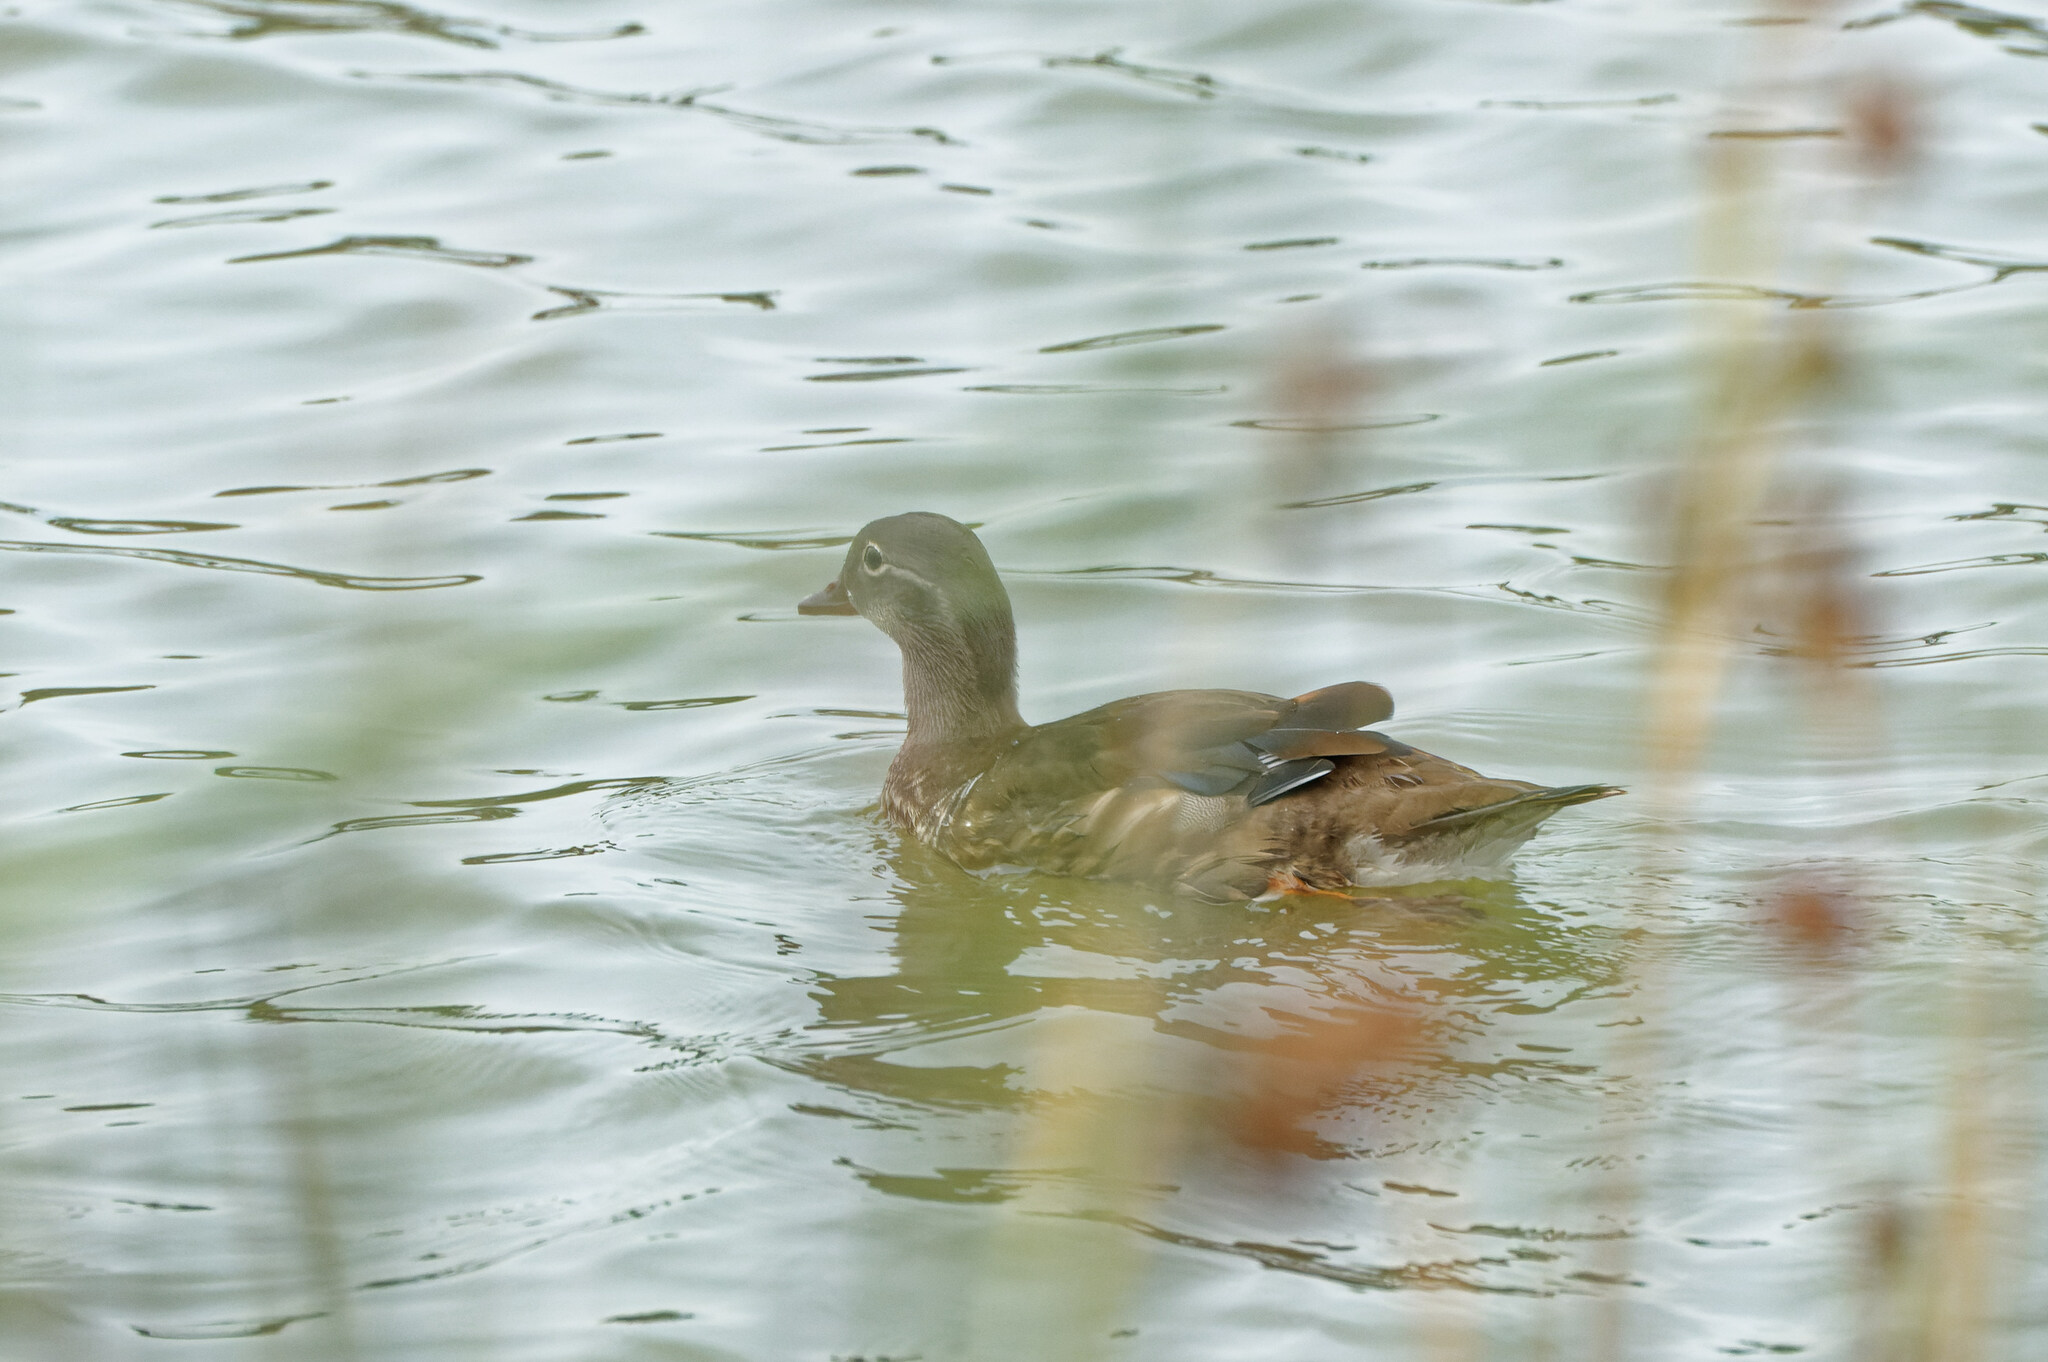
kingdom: Animalia
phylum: Chordata
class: Aves
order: Anseriformes
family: Anatidae
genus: Aix
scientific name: Aix sponsa
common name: Wood duck
